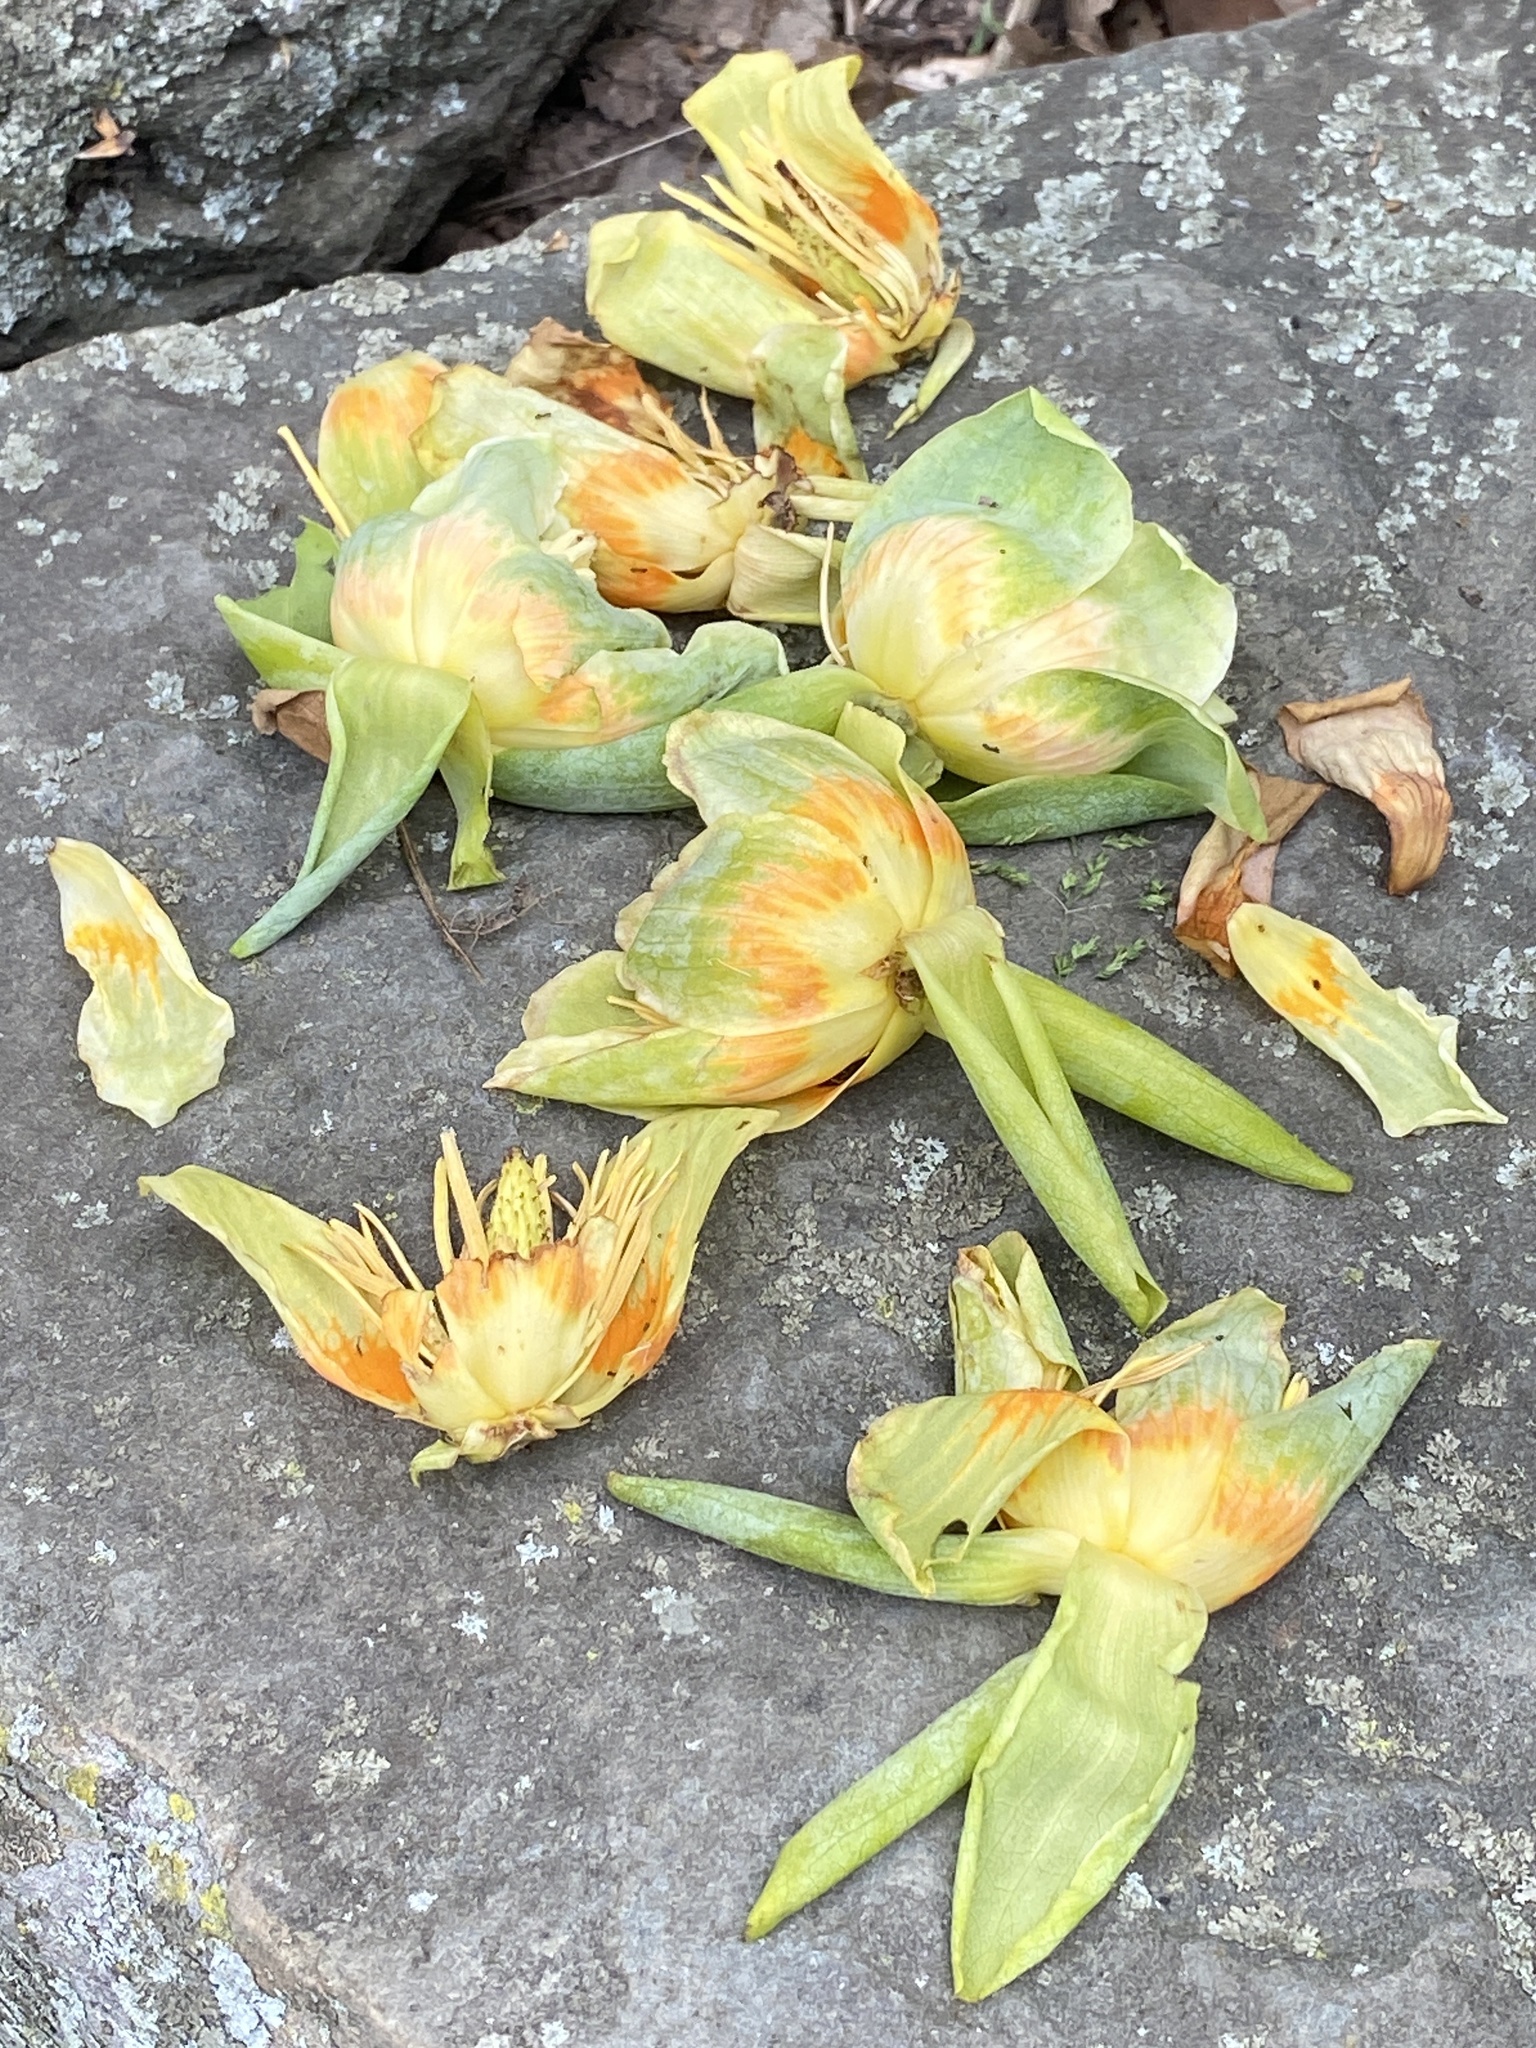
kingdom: Plantae
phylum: Tracheophyta
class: Magnoliopsida
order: Magnoliales
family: Magnoliaceae
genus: Liriodendron
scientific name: Liriodendron tulipifera
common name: Tulip tree
